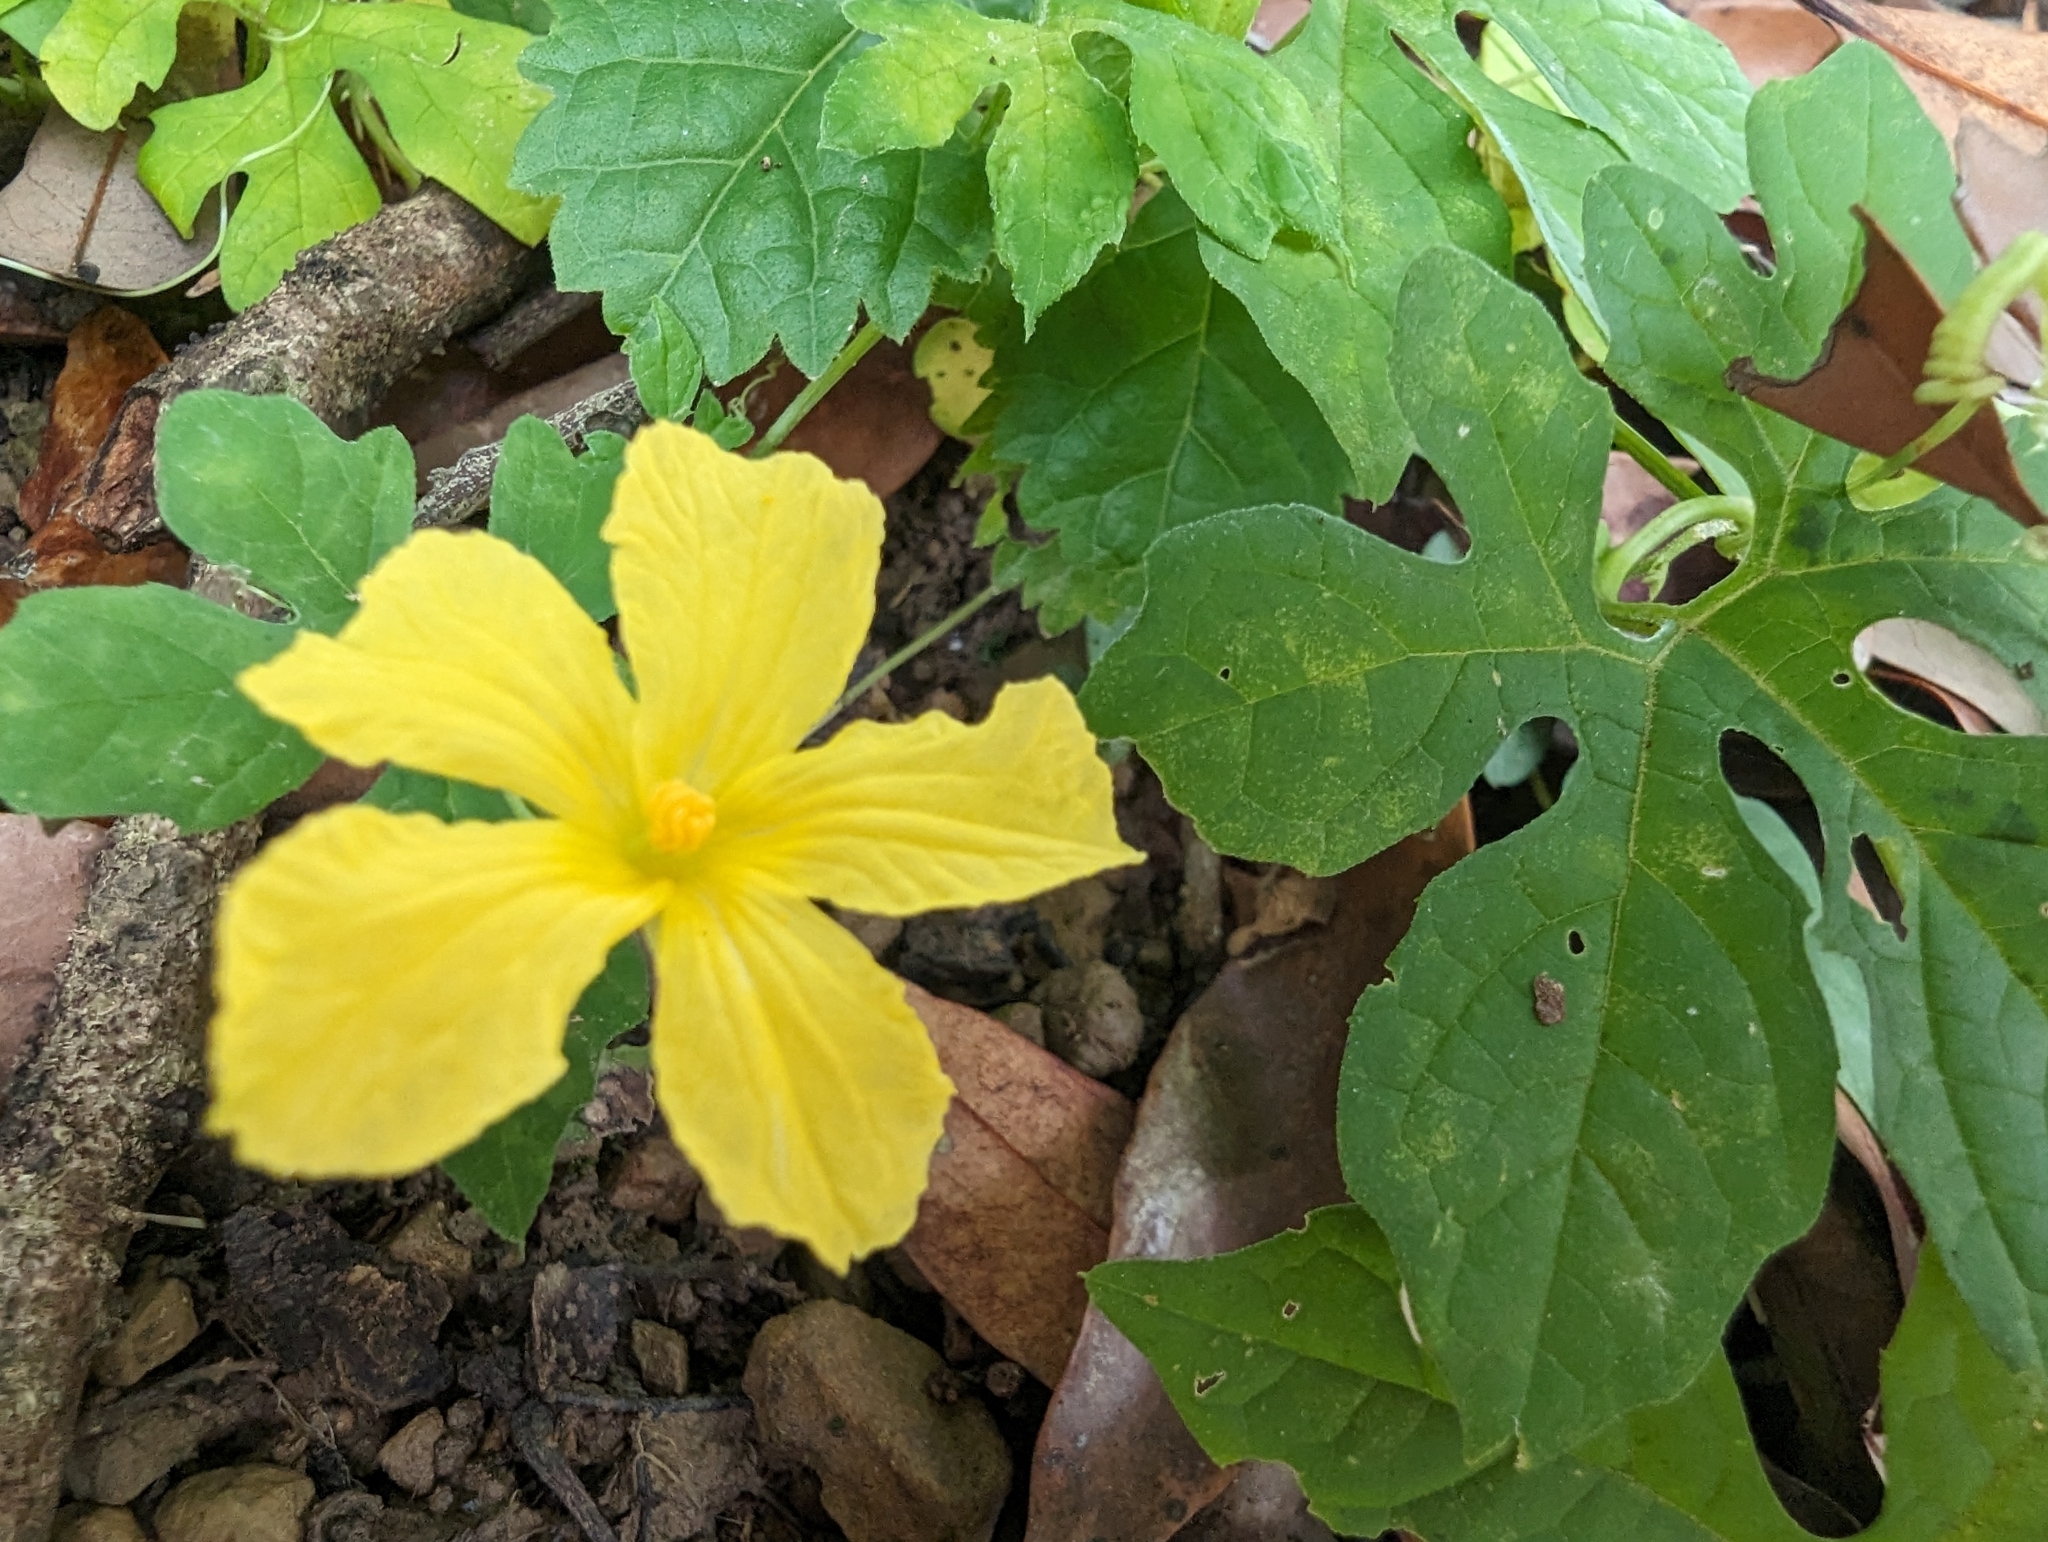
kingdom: Plantae
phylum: Tracheophyta
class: Magnoliopsida
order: Cucurbitales
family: Cucurbitaceae
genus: Momordica
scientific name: Momordica charantia
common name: Balsampear
